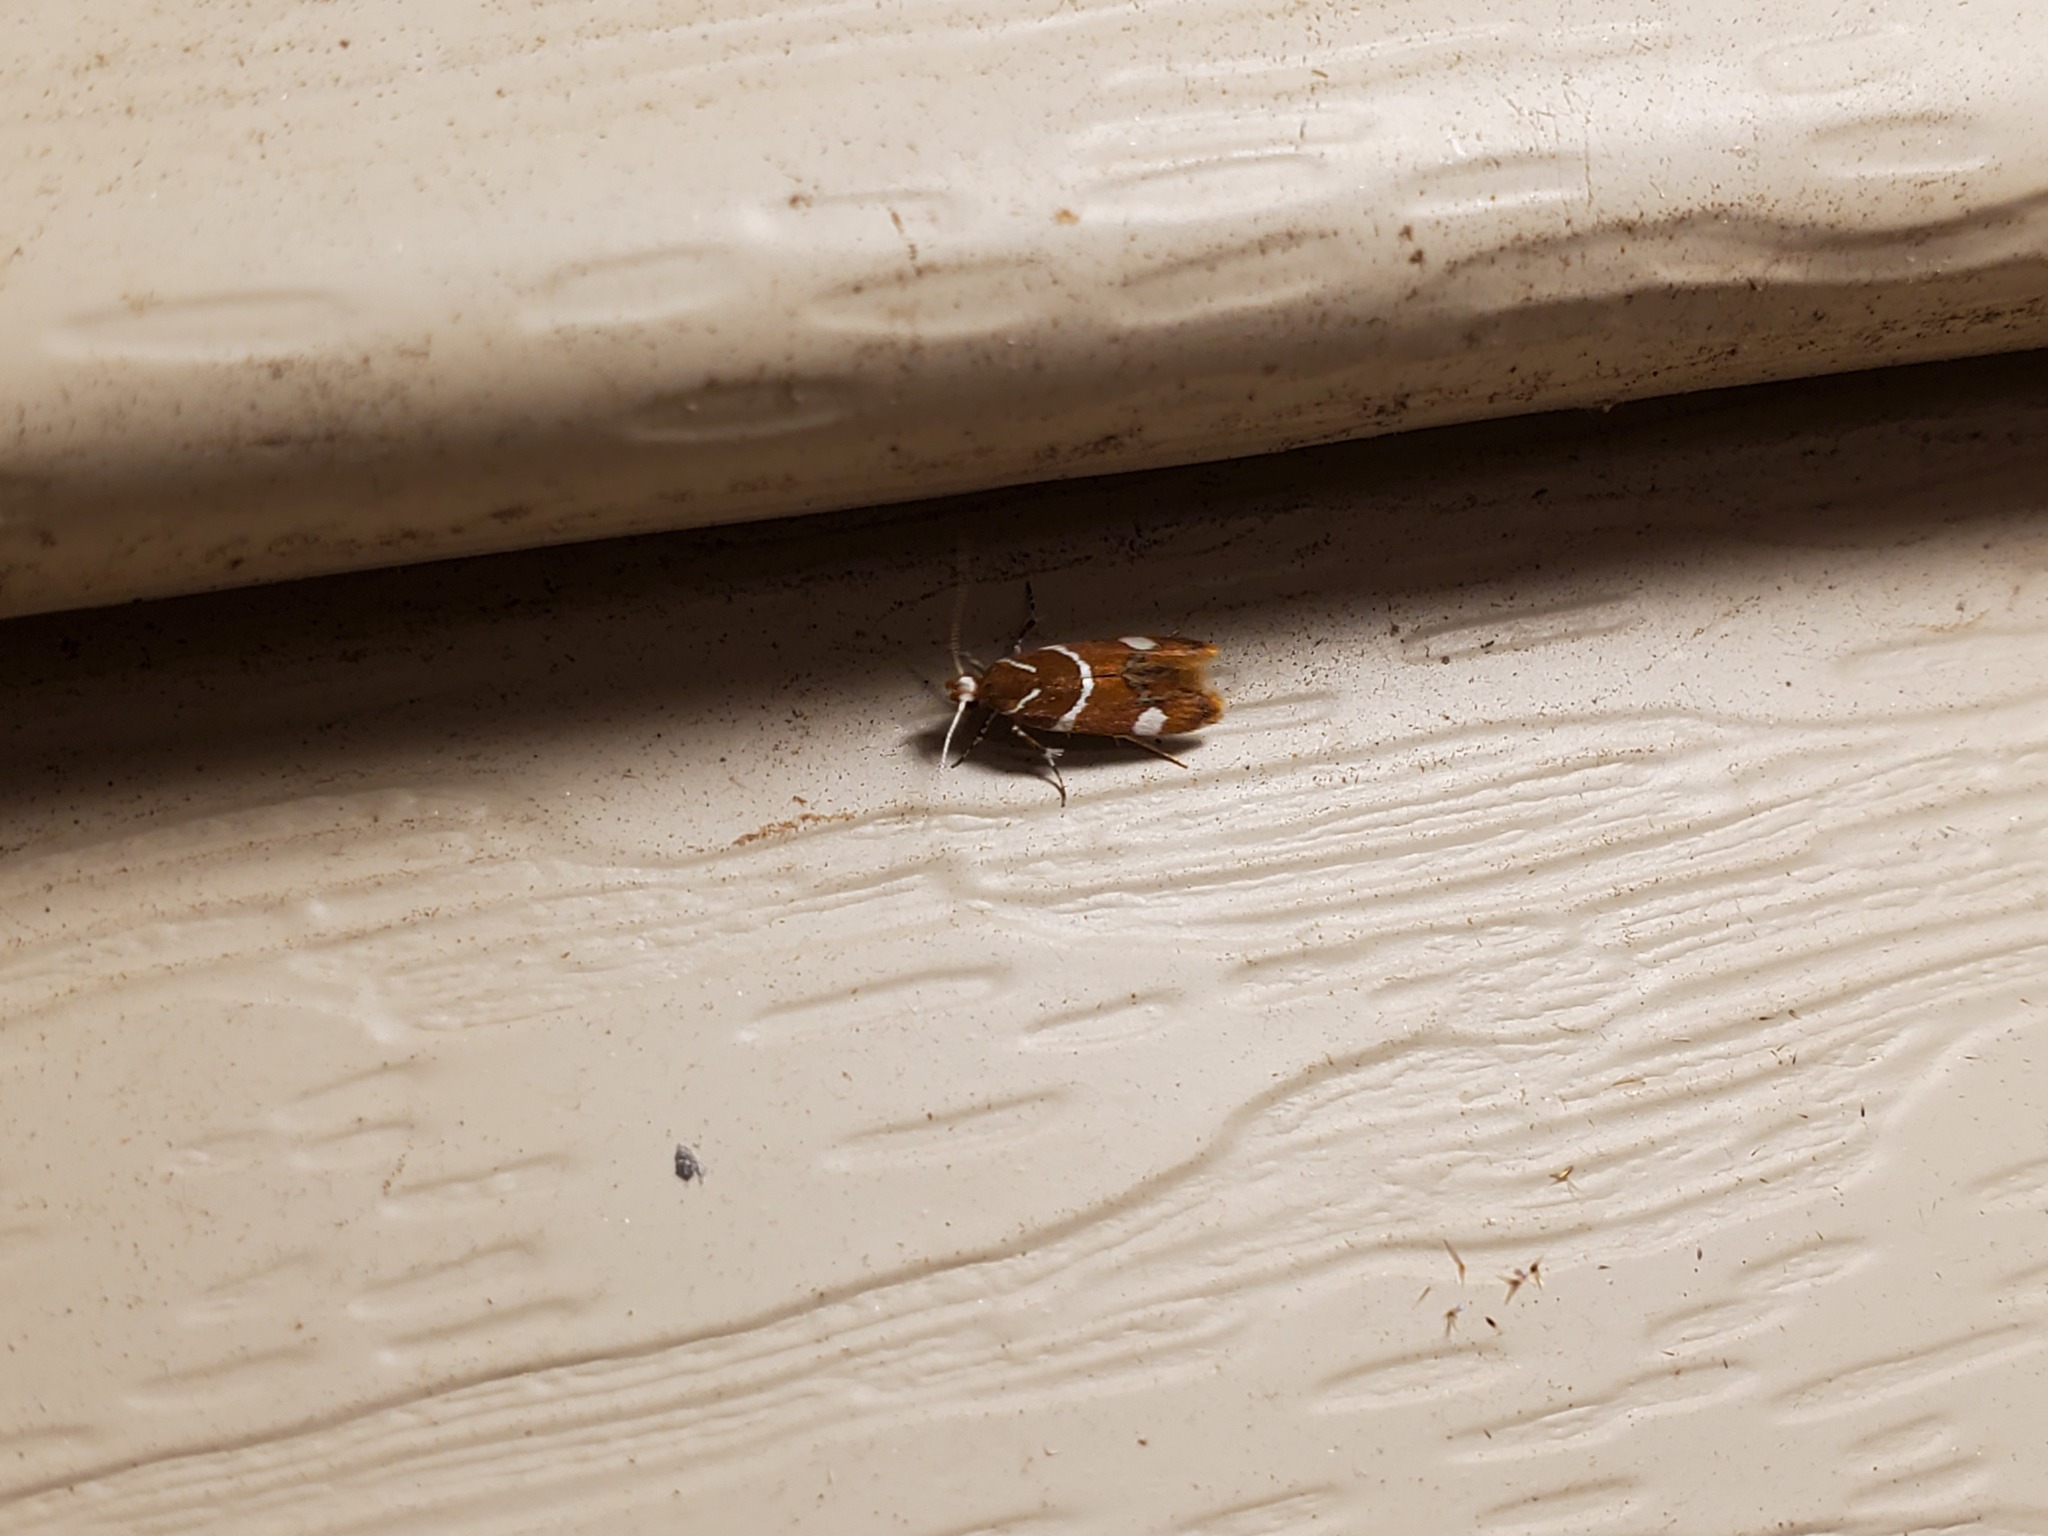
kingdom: Animalia
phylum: Arthropoda
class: Insecta
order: Lepidoptera
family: Oecophoridae
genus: Promalactis
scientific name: Promalactis suzukiella
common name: Moth
